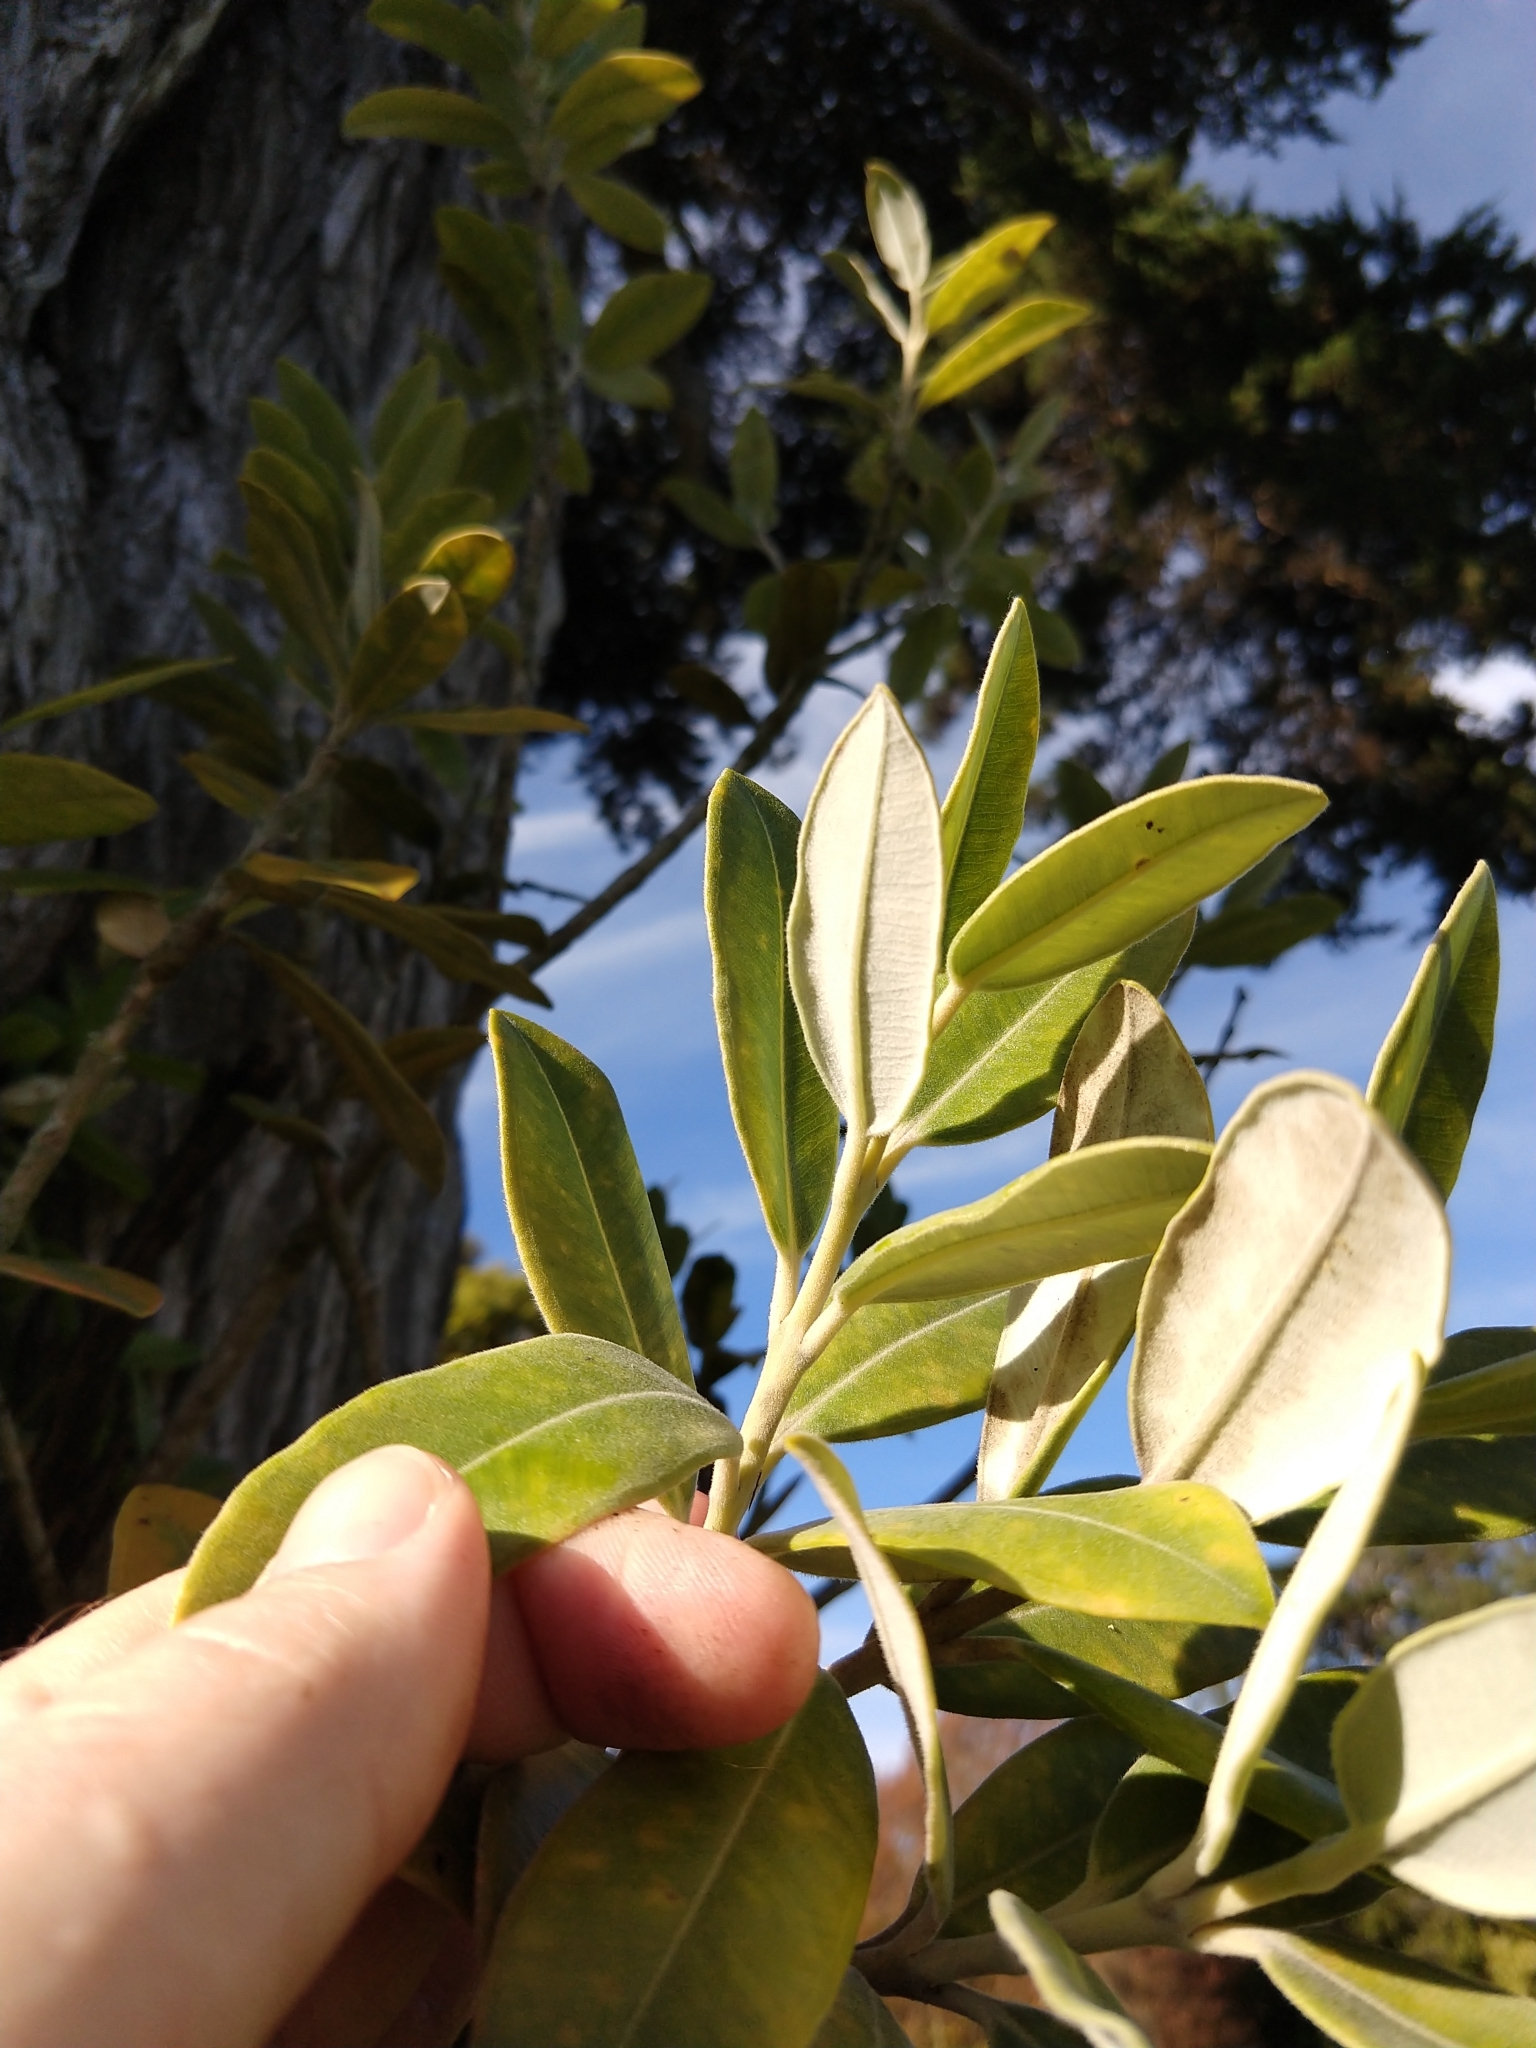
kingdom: Plantae
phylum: Tracheophyta
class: Magnoliopsida
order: Myrtales
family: Myrtaceae
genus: Metrosideros
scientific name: Metrosideros excelsa
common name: New zealand christmastree
